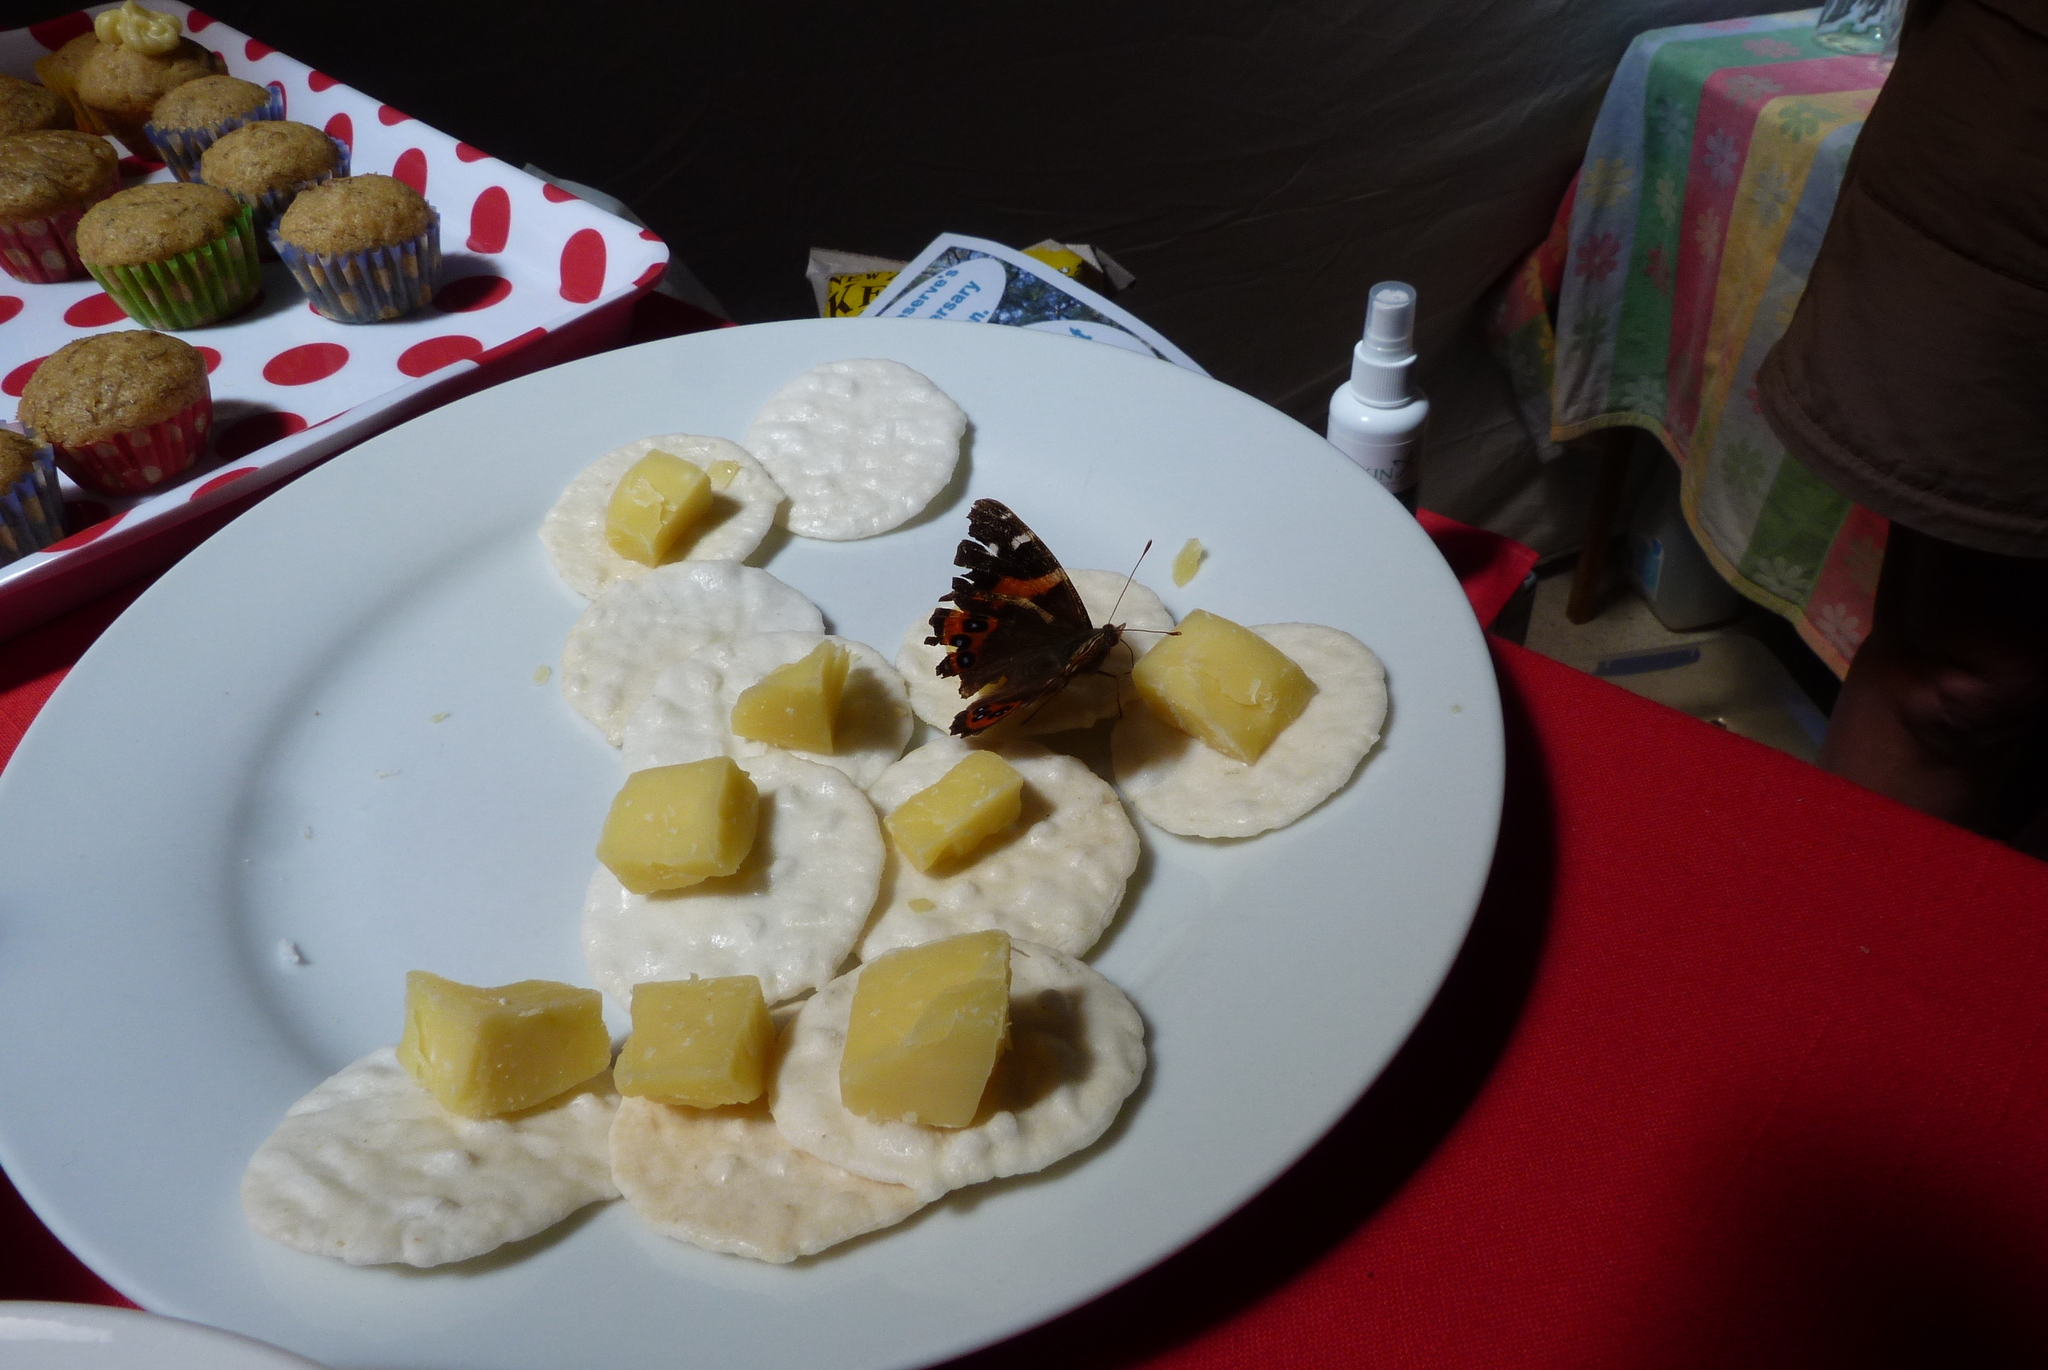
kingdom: Animalia
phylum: Arthropoda
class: Insecta
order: Lepidoptera
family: Nymphalidae
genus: Vanessa
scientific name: Vanessa gonerilla
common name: New zealand red admiral
